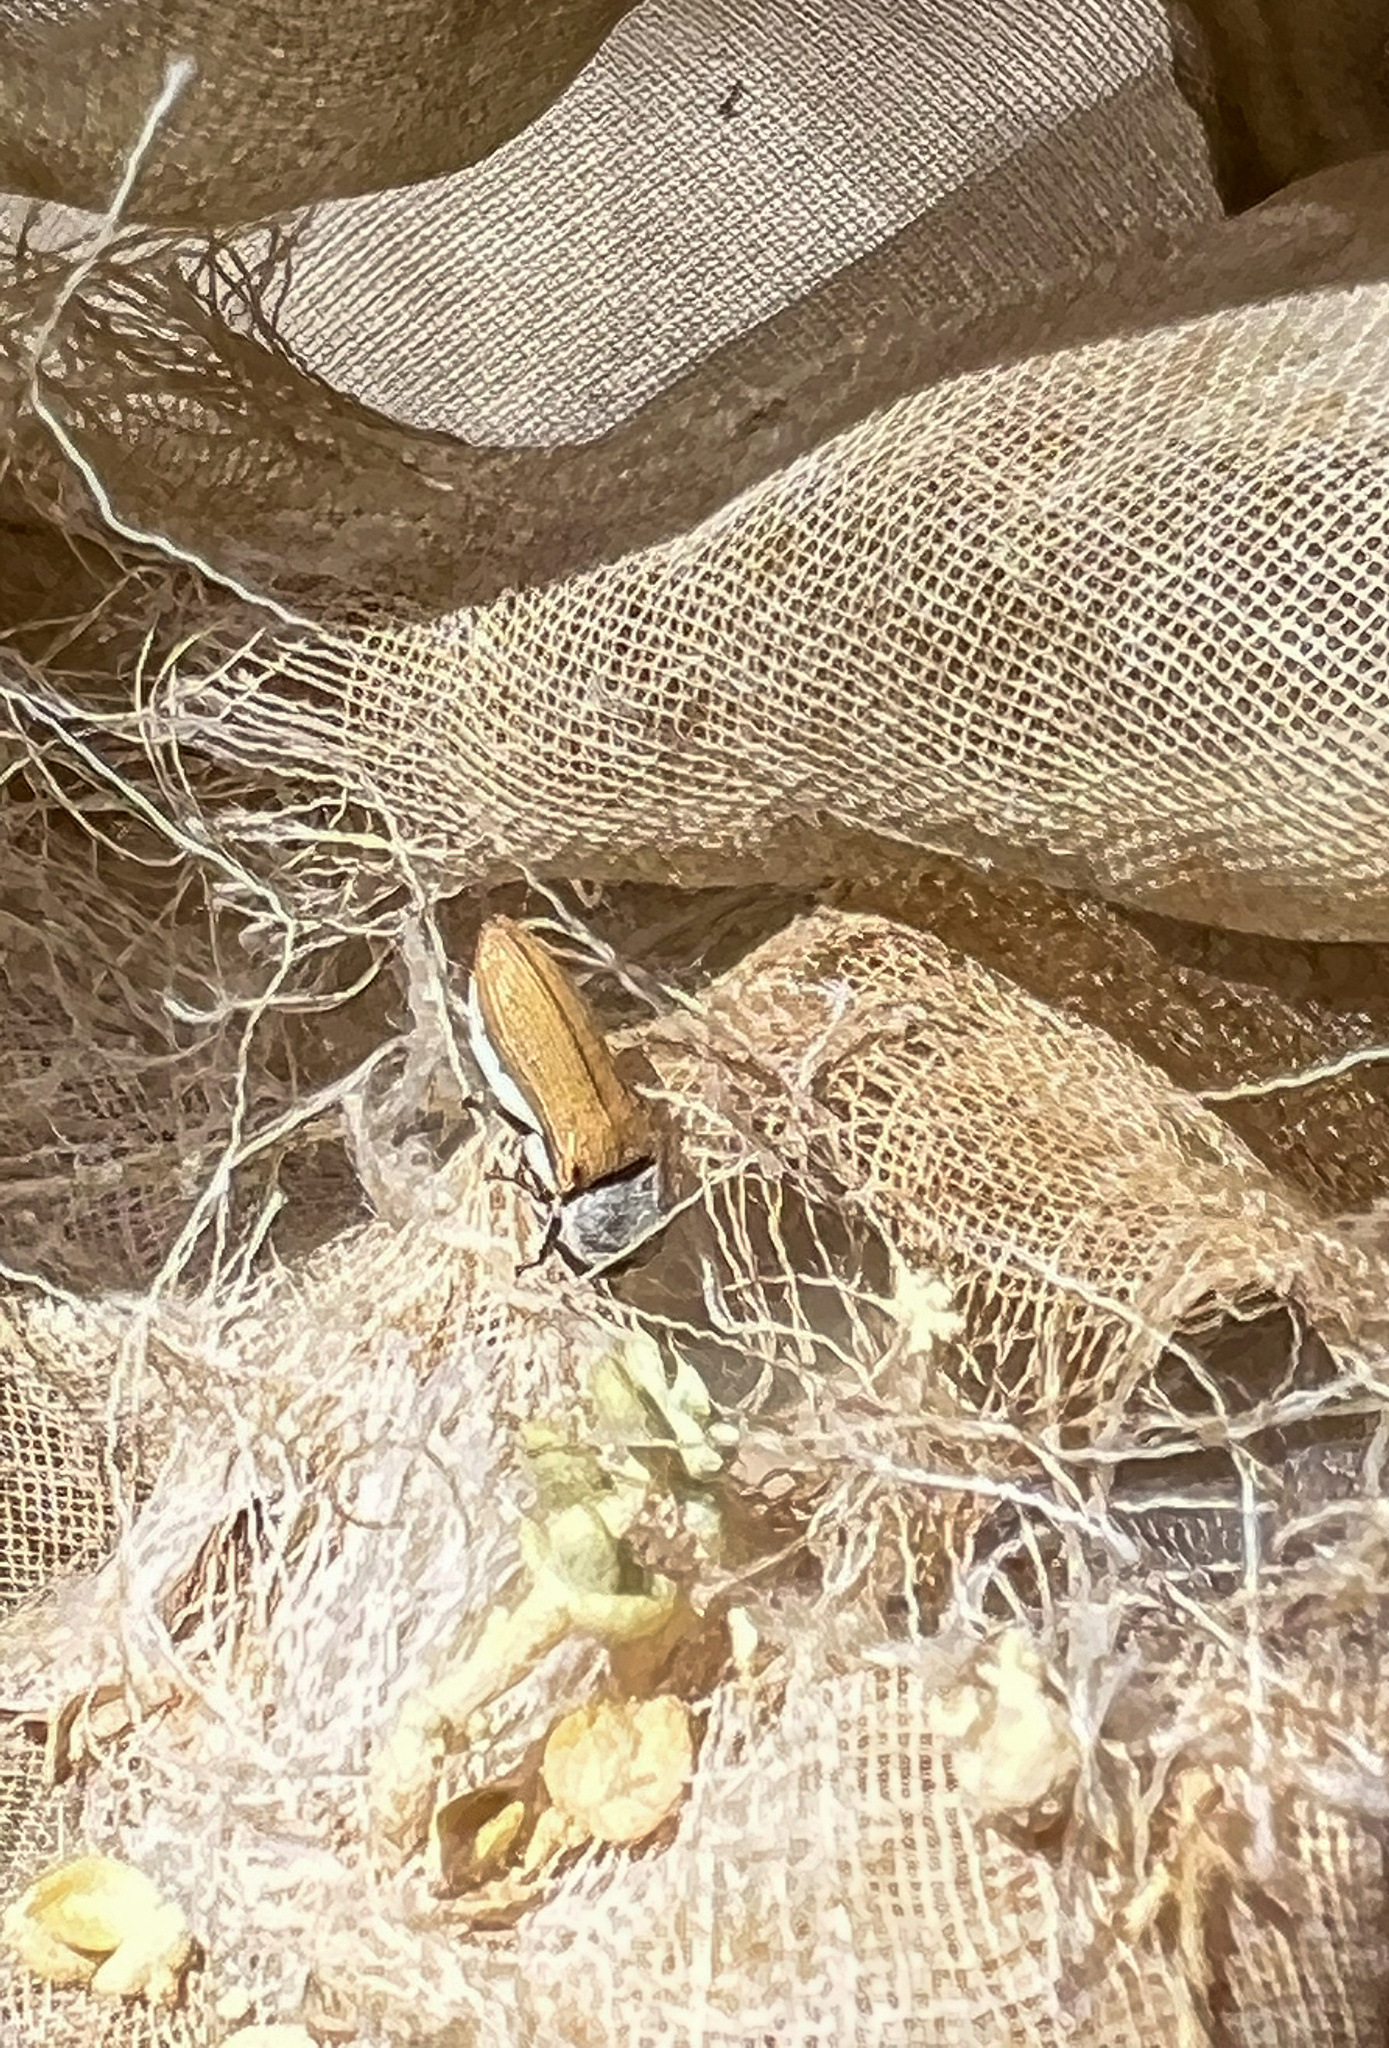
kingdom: Animalia
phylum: Arthropoda
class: Insecta
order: Coleoptera
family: Buprestidae
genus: Acmaeodera
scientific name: Acmaeodera vanduzeei
